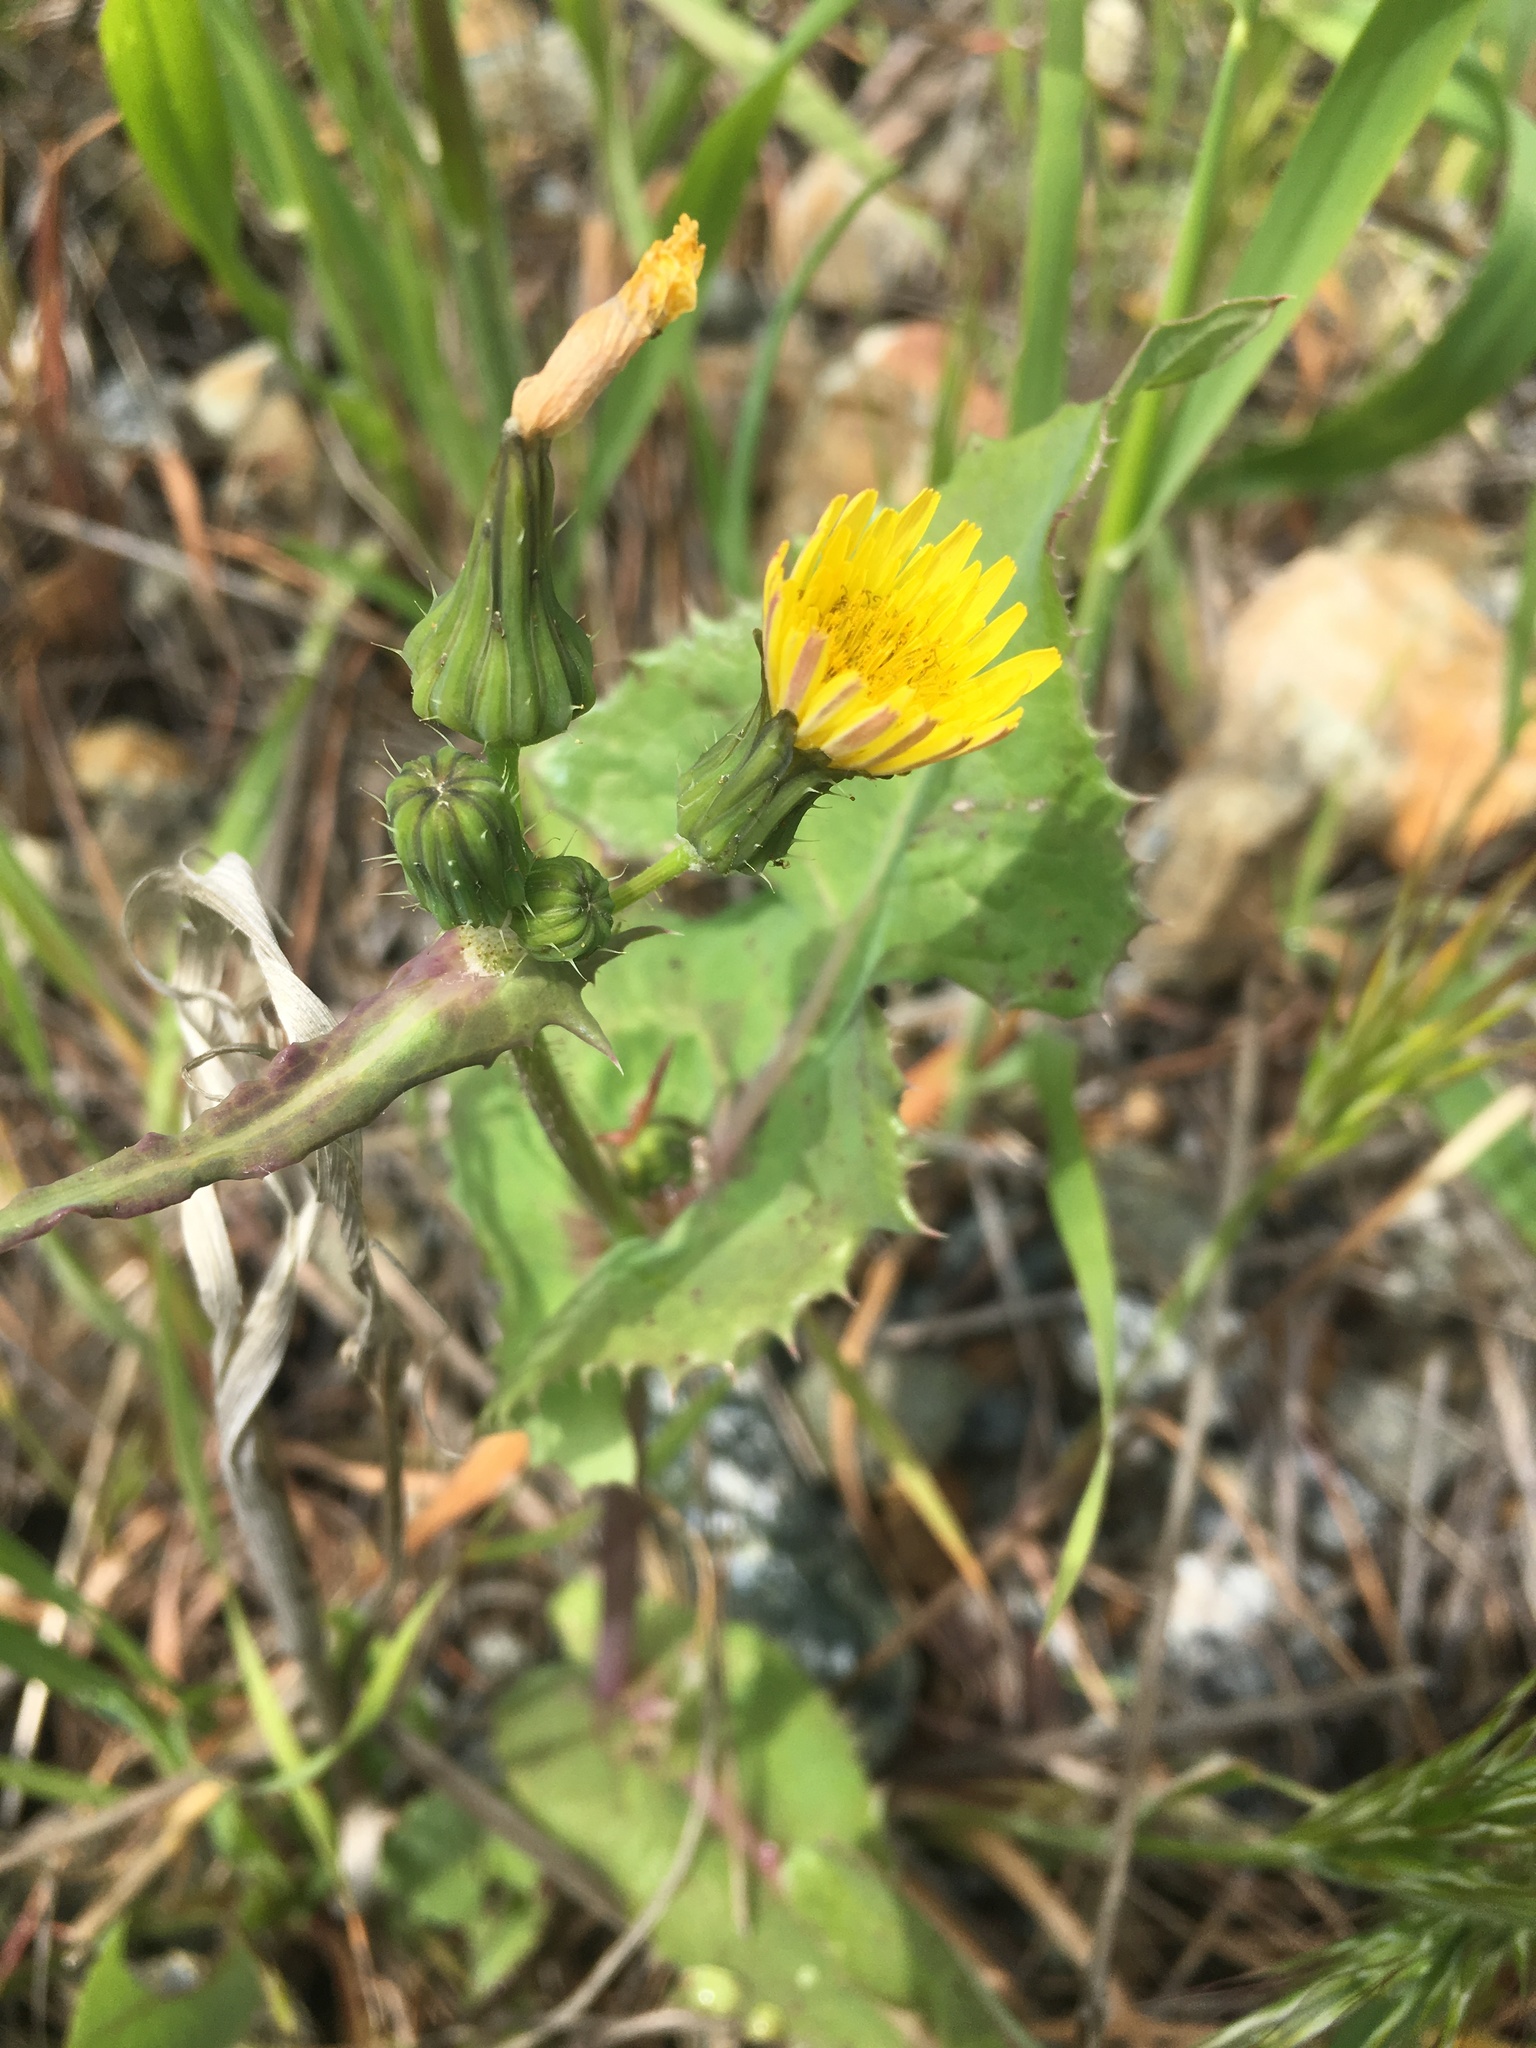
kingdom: Plantae
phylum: Tracheophyta
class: Magnoliopsida
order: Asterales
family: Asteraceae
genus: Sonchus
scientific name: Sonchus oleraceus
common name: Common sowthistle
